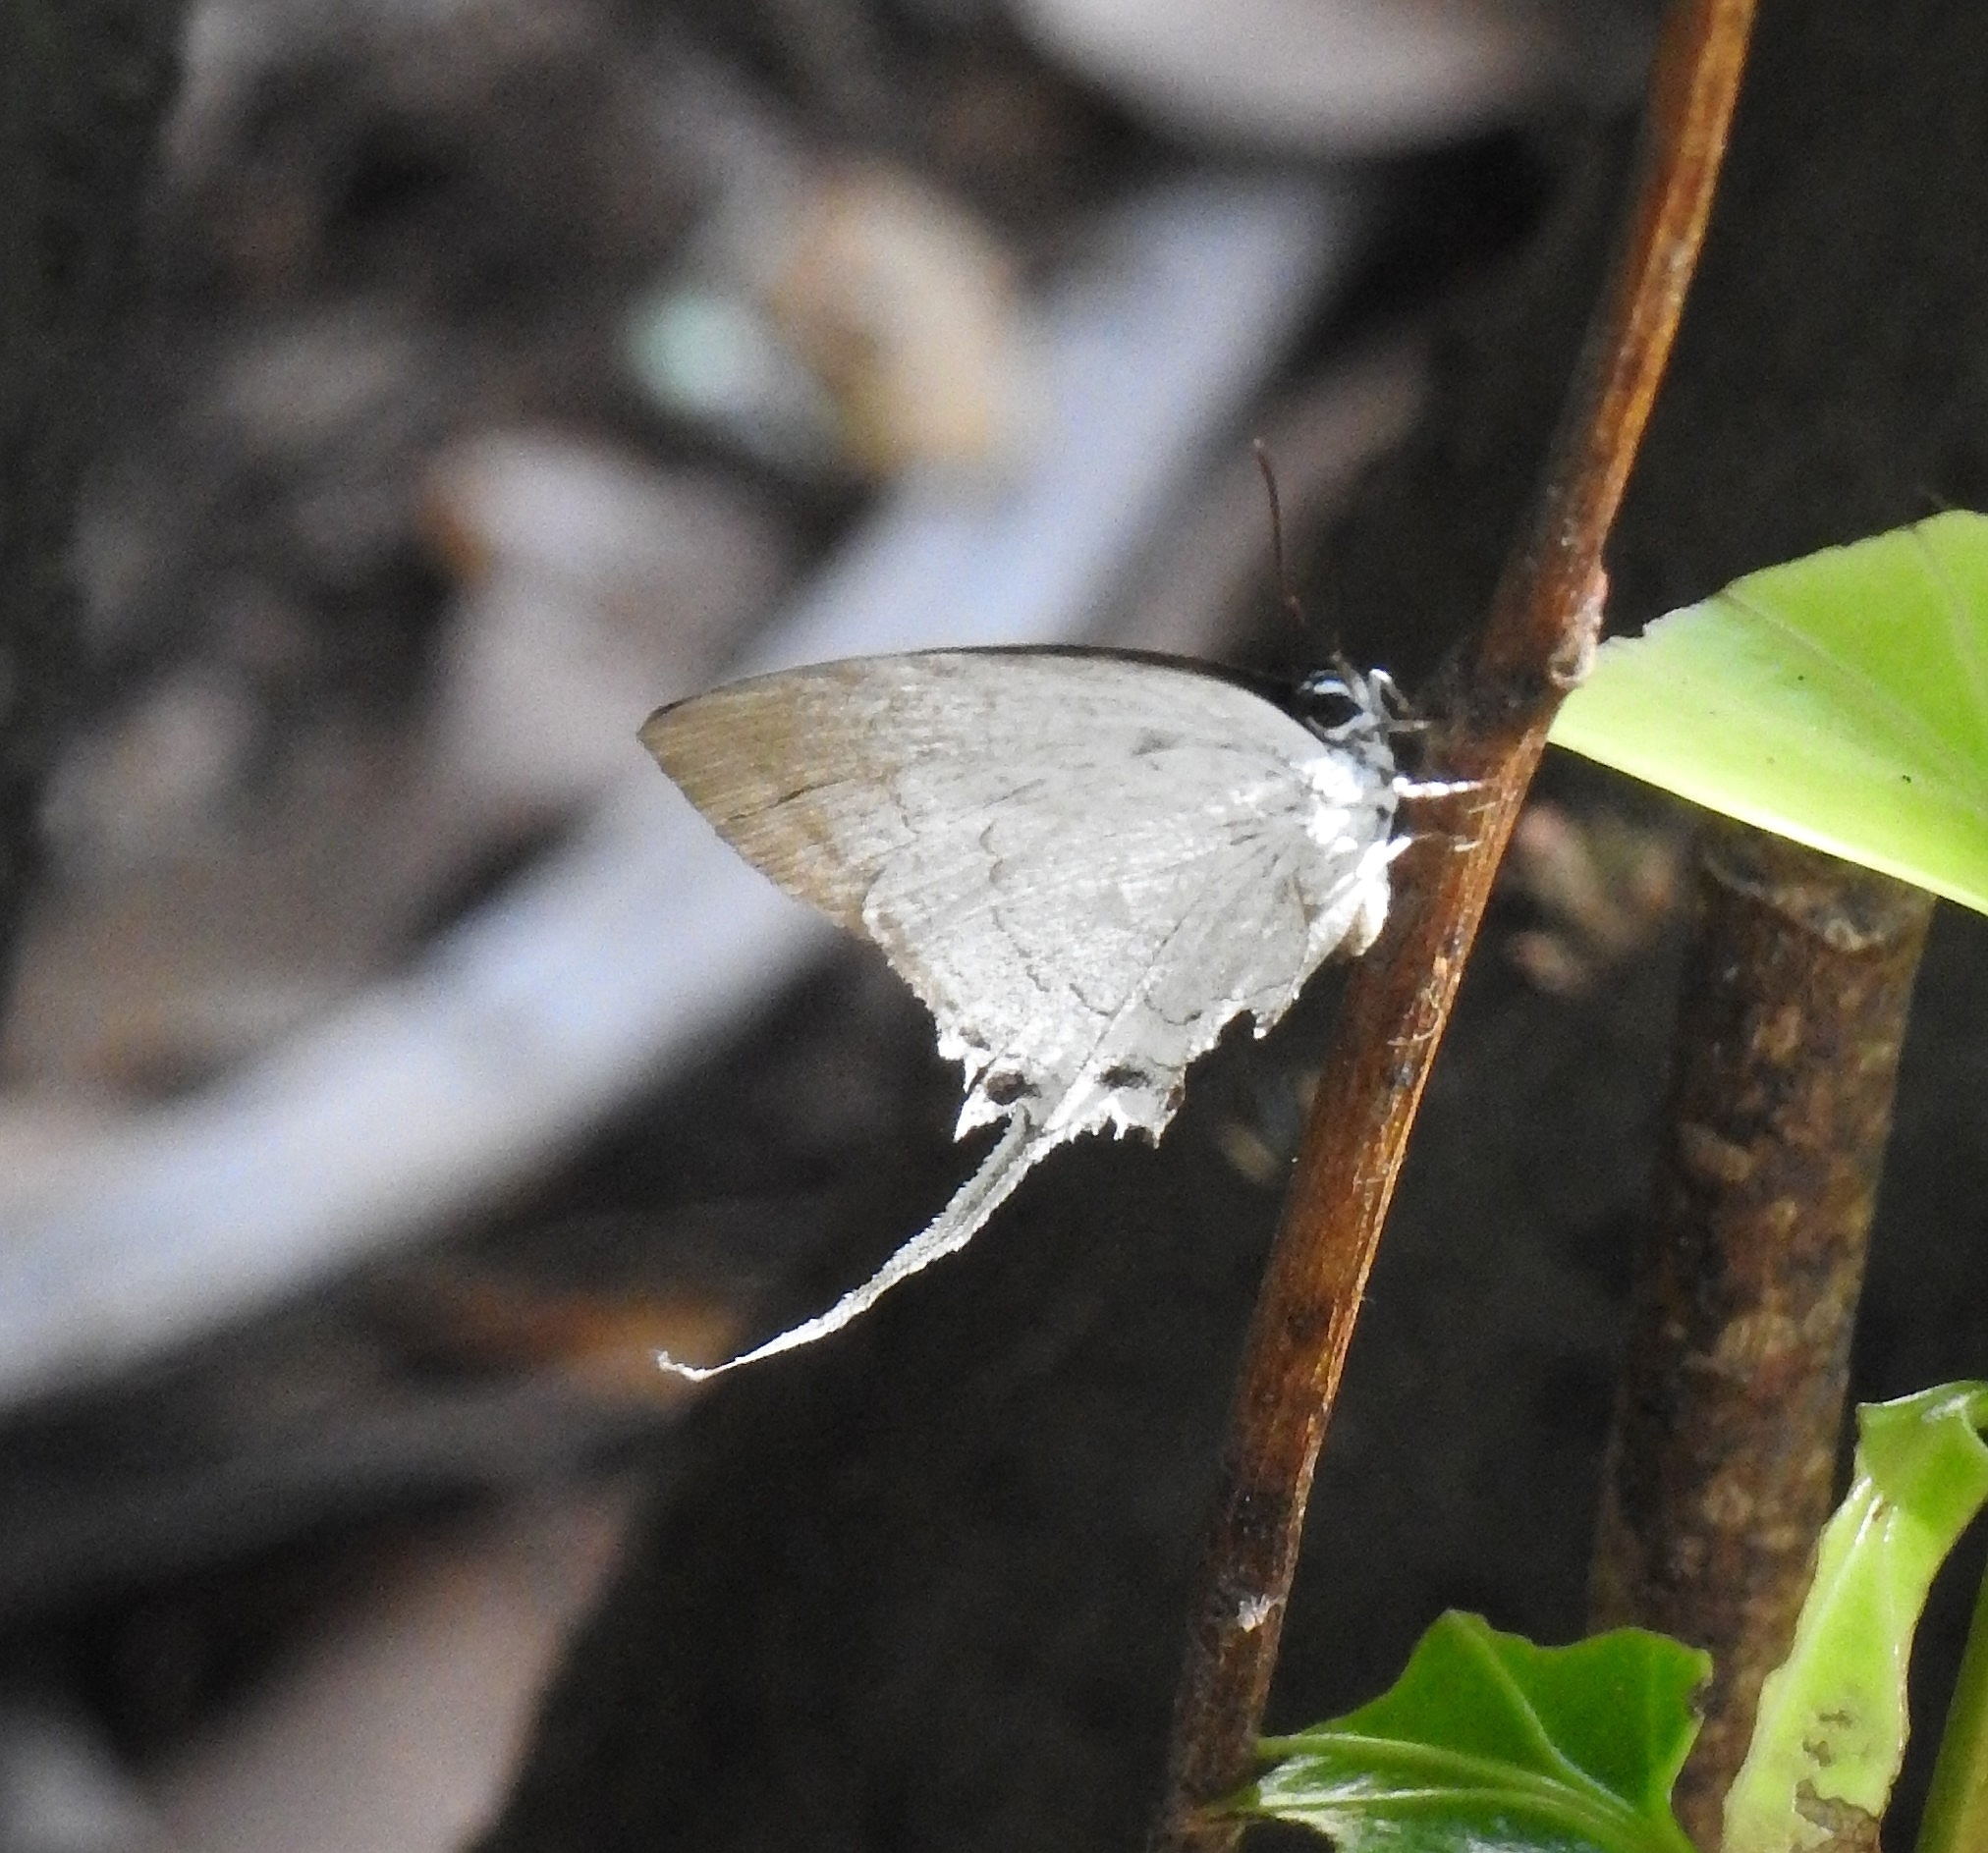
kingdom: Animalia
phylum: Arthropoda
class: Insecta
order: Lepidoptera
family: Lycaenidae
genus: Cheritra
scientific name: Cheritra freja
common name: Common imperial
